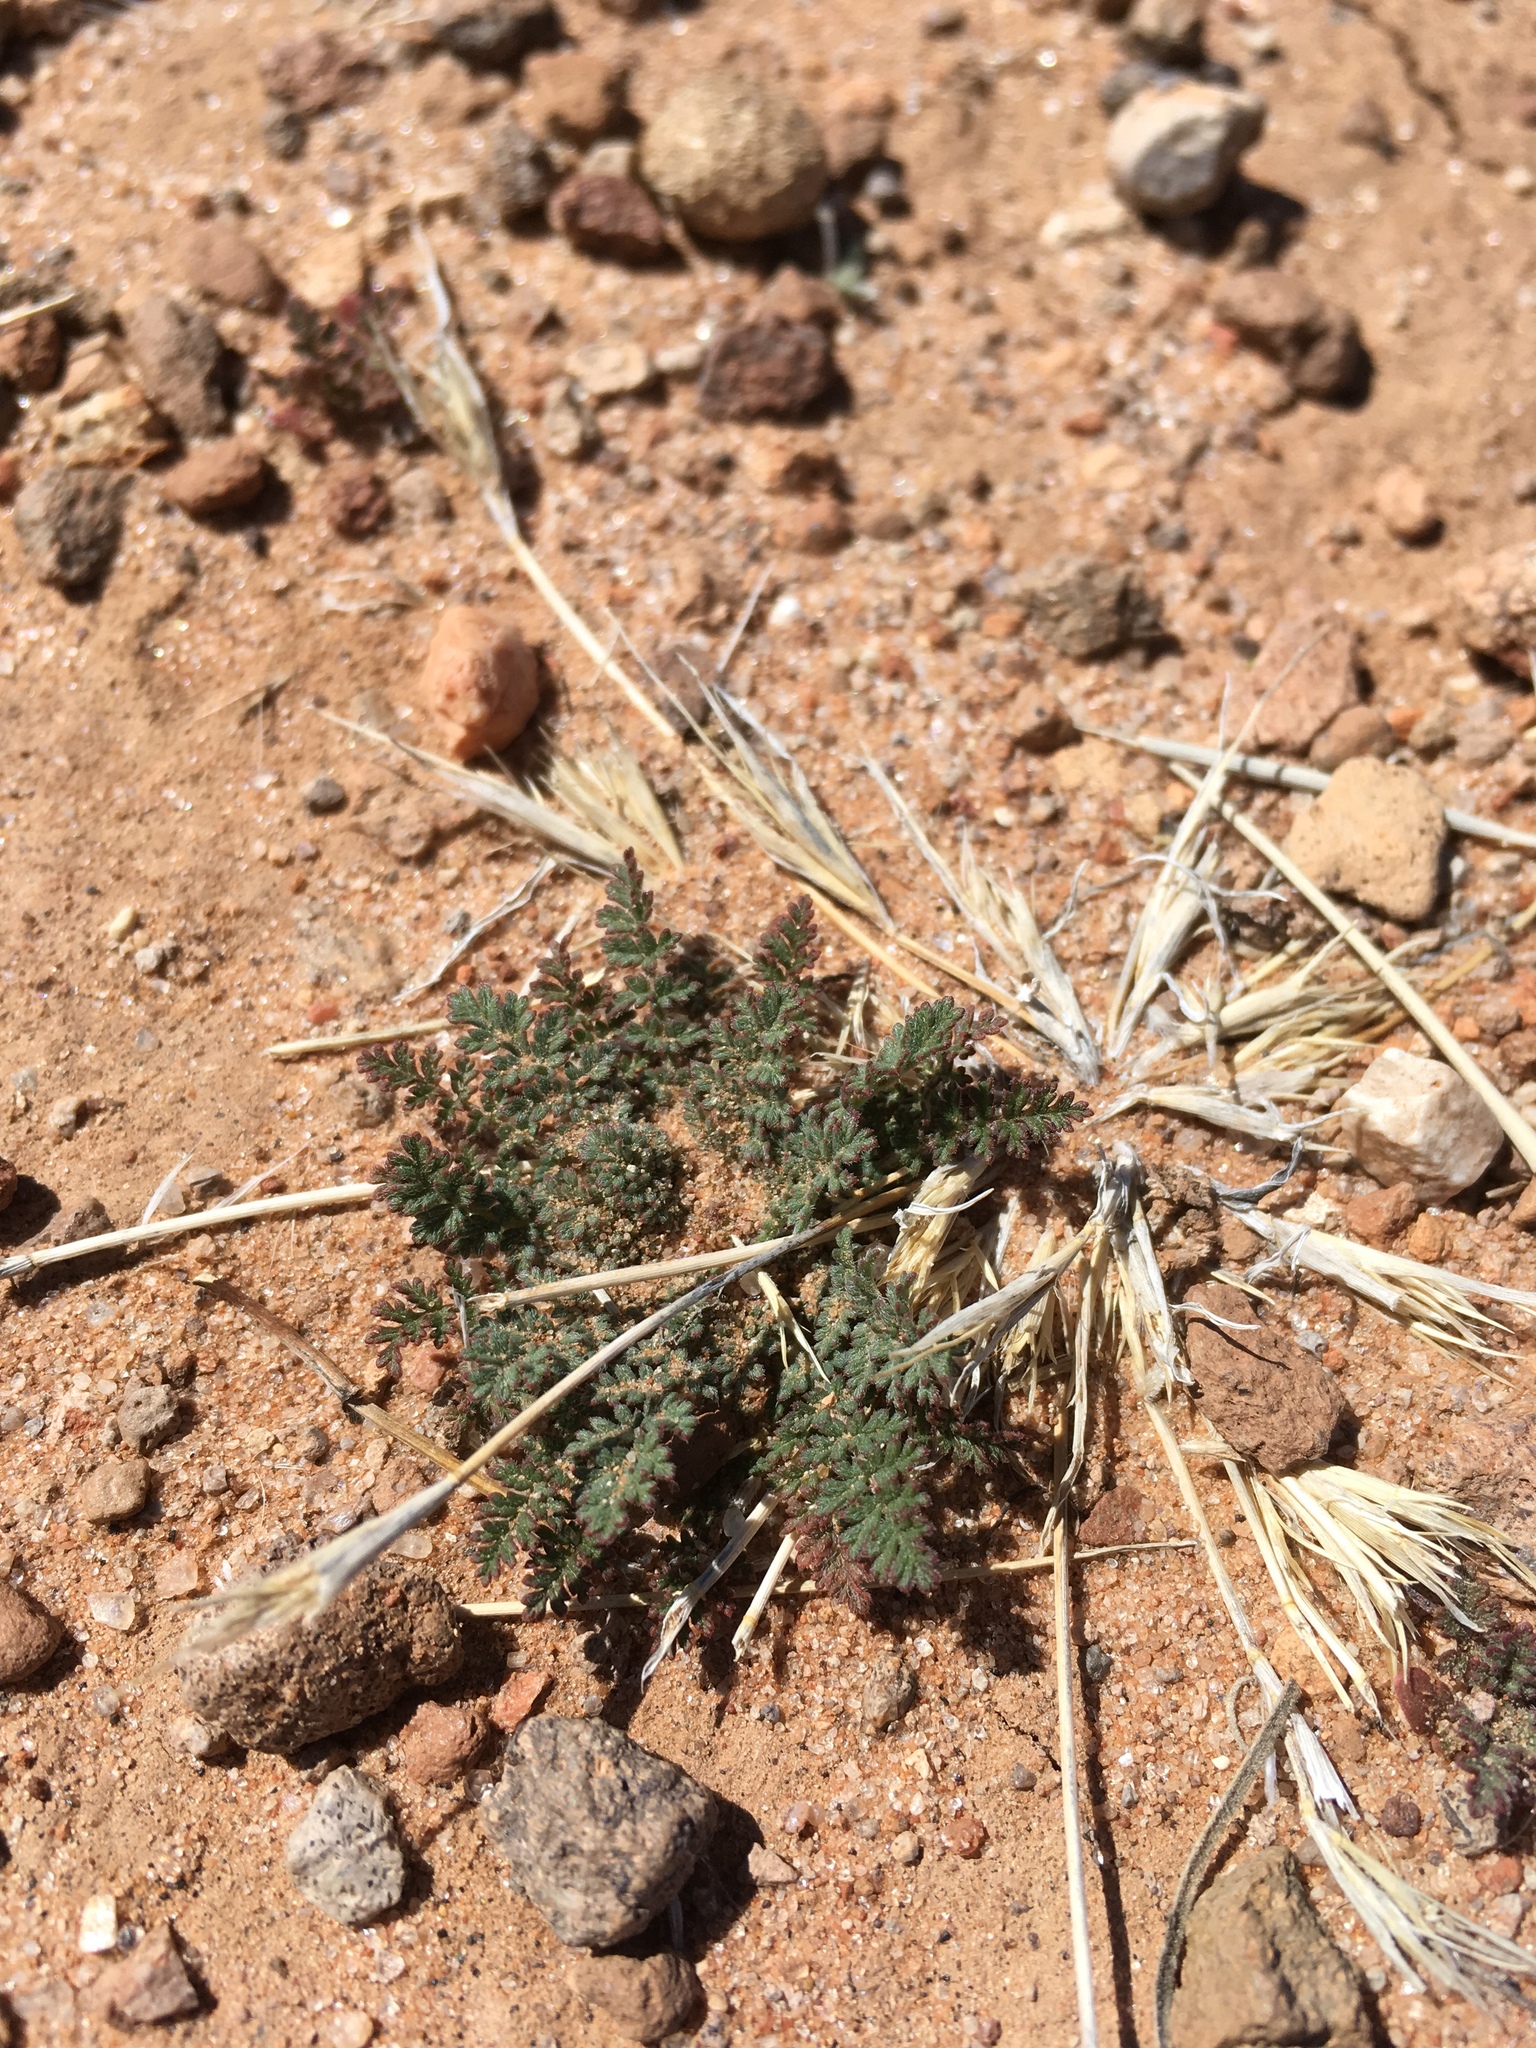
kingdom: Plantae
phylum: Tracheophyta
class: Magnoliopsida
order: Geraniales
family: Geraniaceae
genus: Erodium
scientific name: Erodium cicutarium
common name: Common stork's-bill
